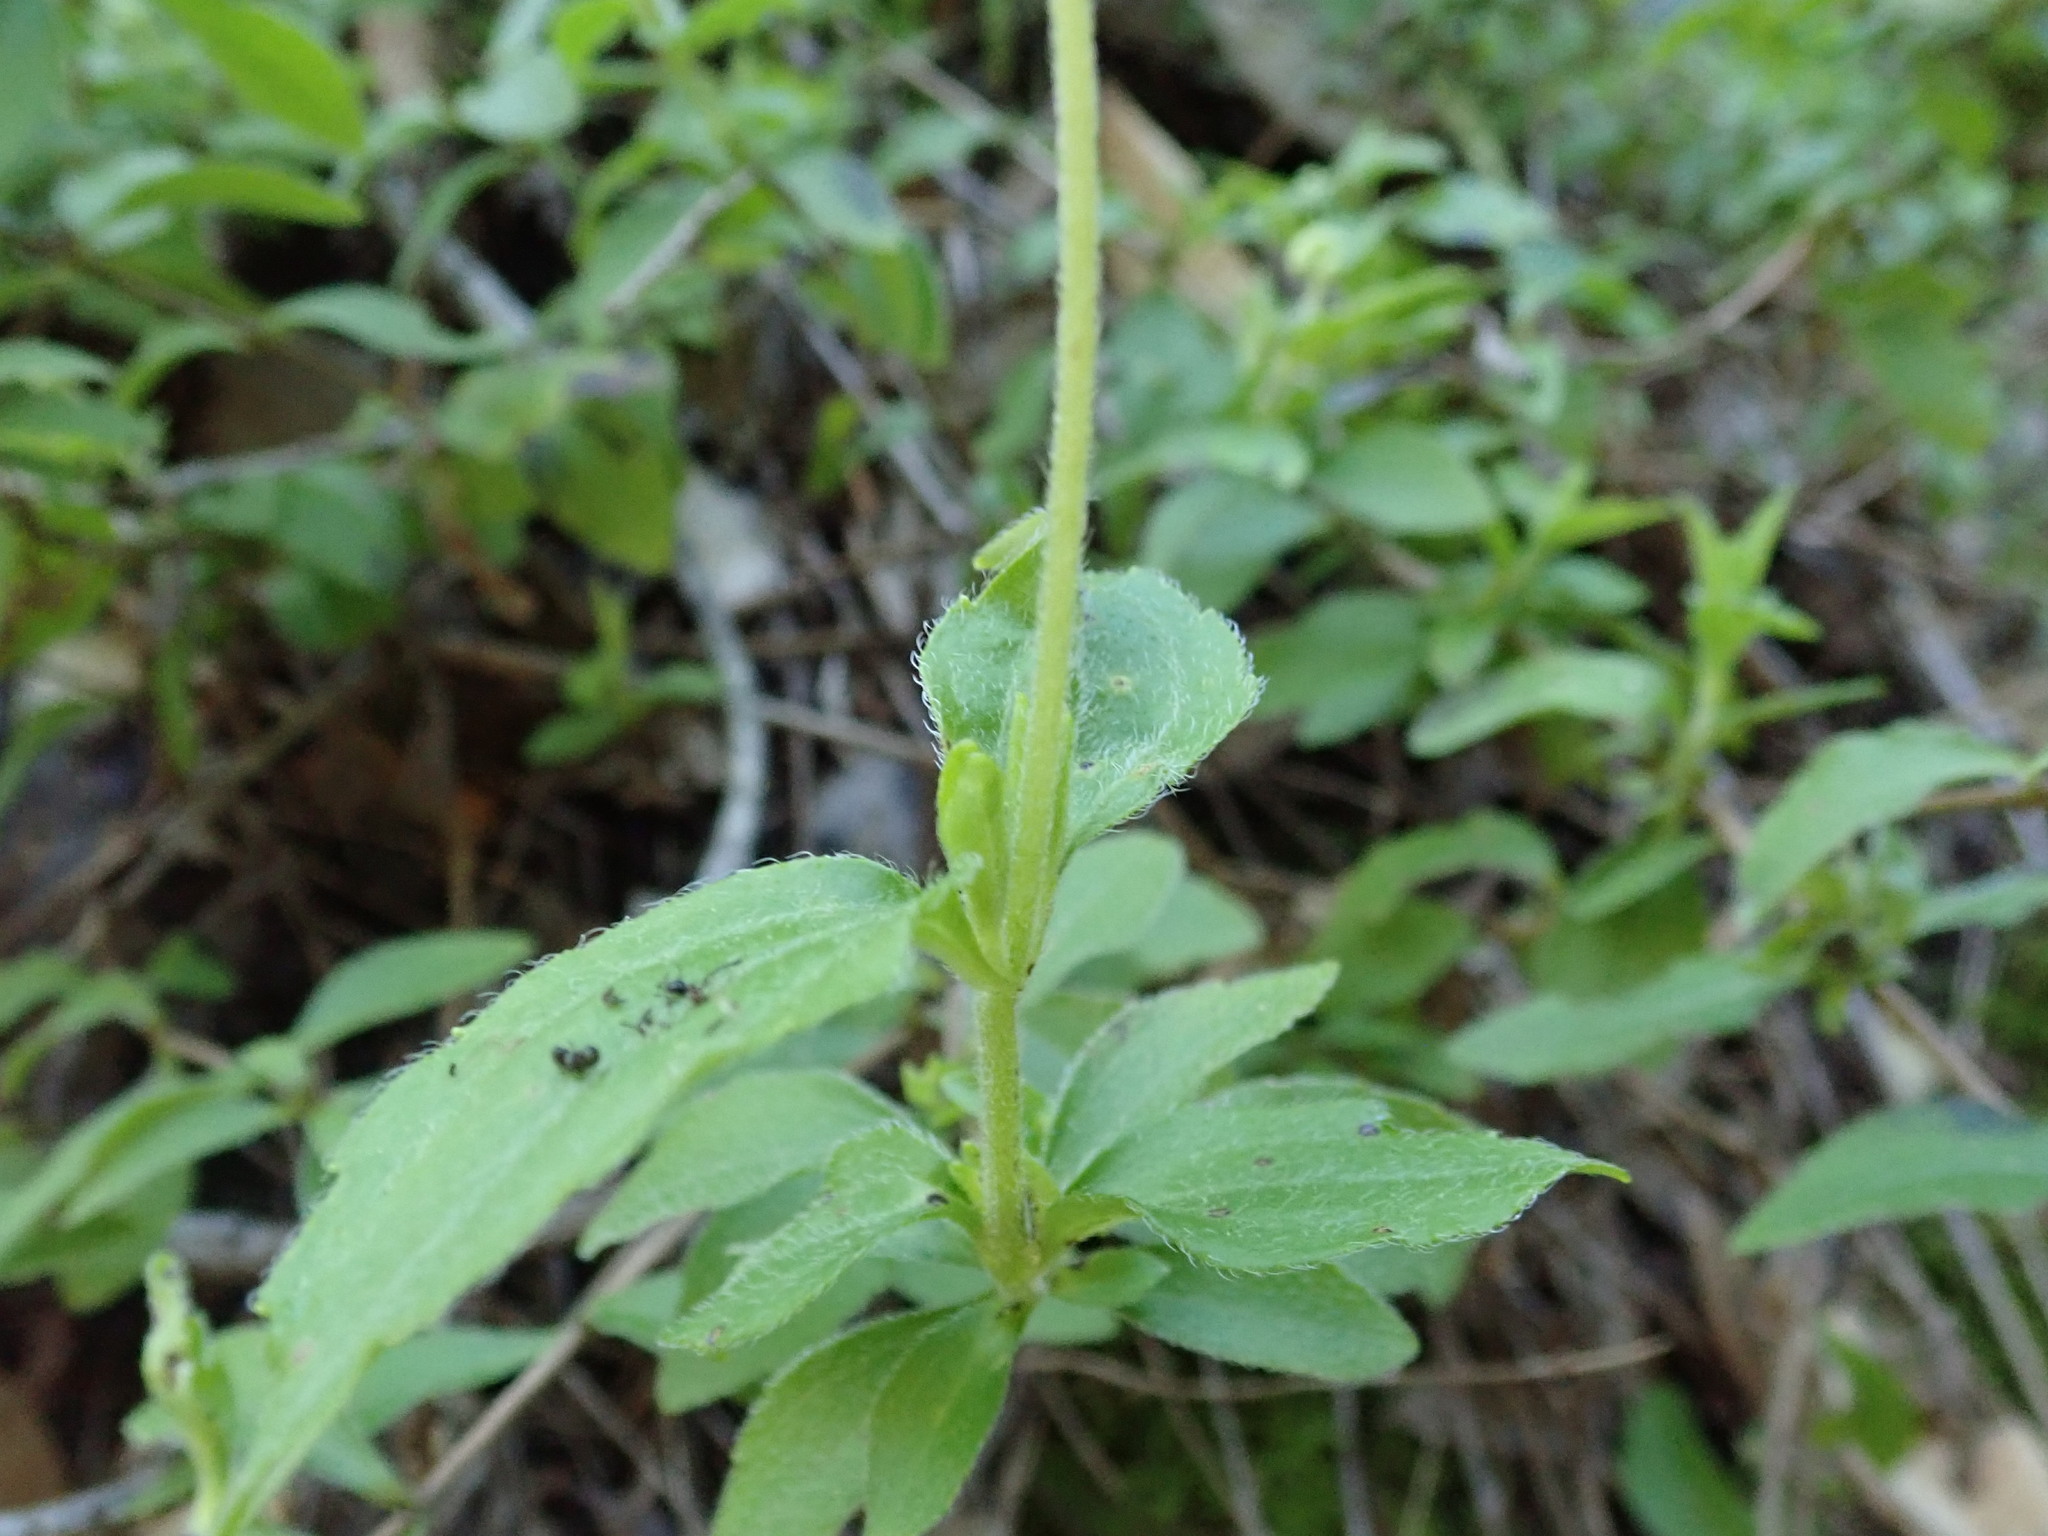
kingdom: Plantae
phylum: Tracheophyta
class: Magnoliopsida
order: Cornales
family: Hydrangeaceae
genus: Whipplea
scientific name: Whipplea modesta
